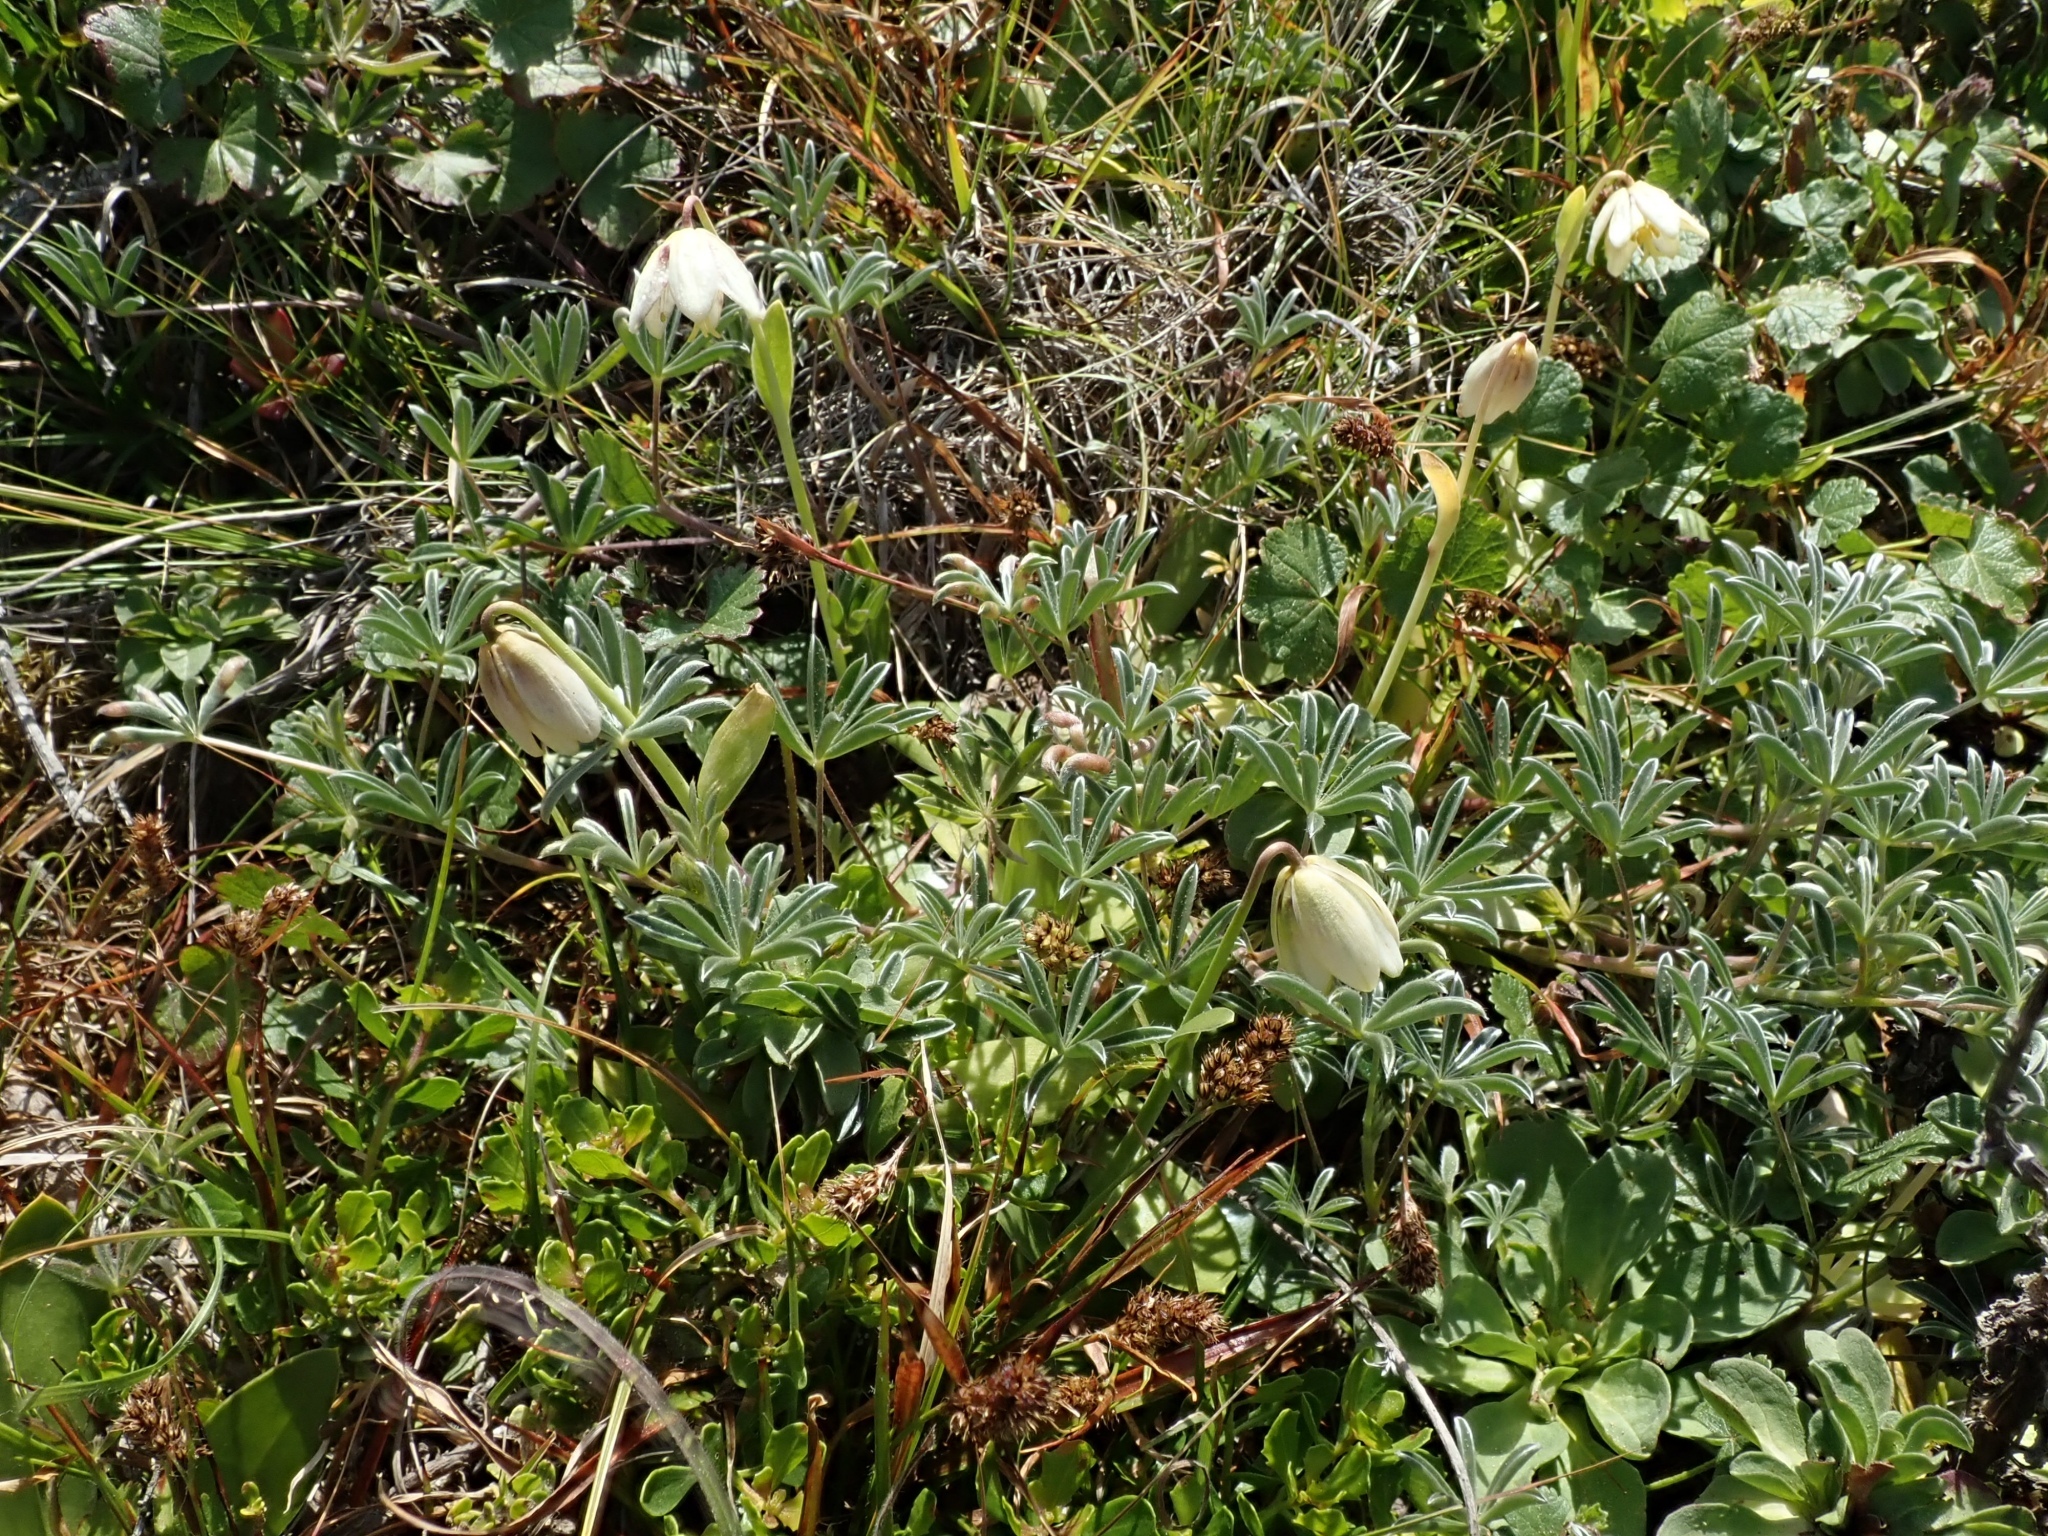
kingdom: Plantae
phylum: Tracheophyta
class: Liliopsida
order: Liliales
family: Liliaceae
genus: Fritillaria
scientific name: Fritillaria liliacea
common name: Fragrant fritillary
